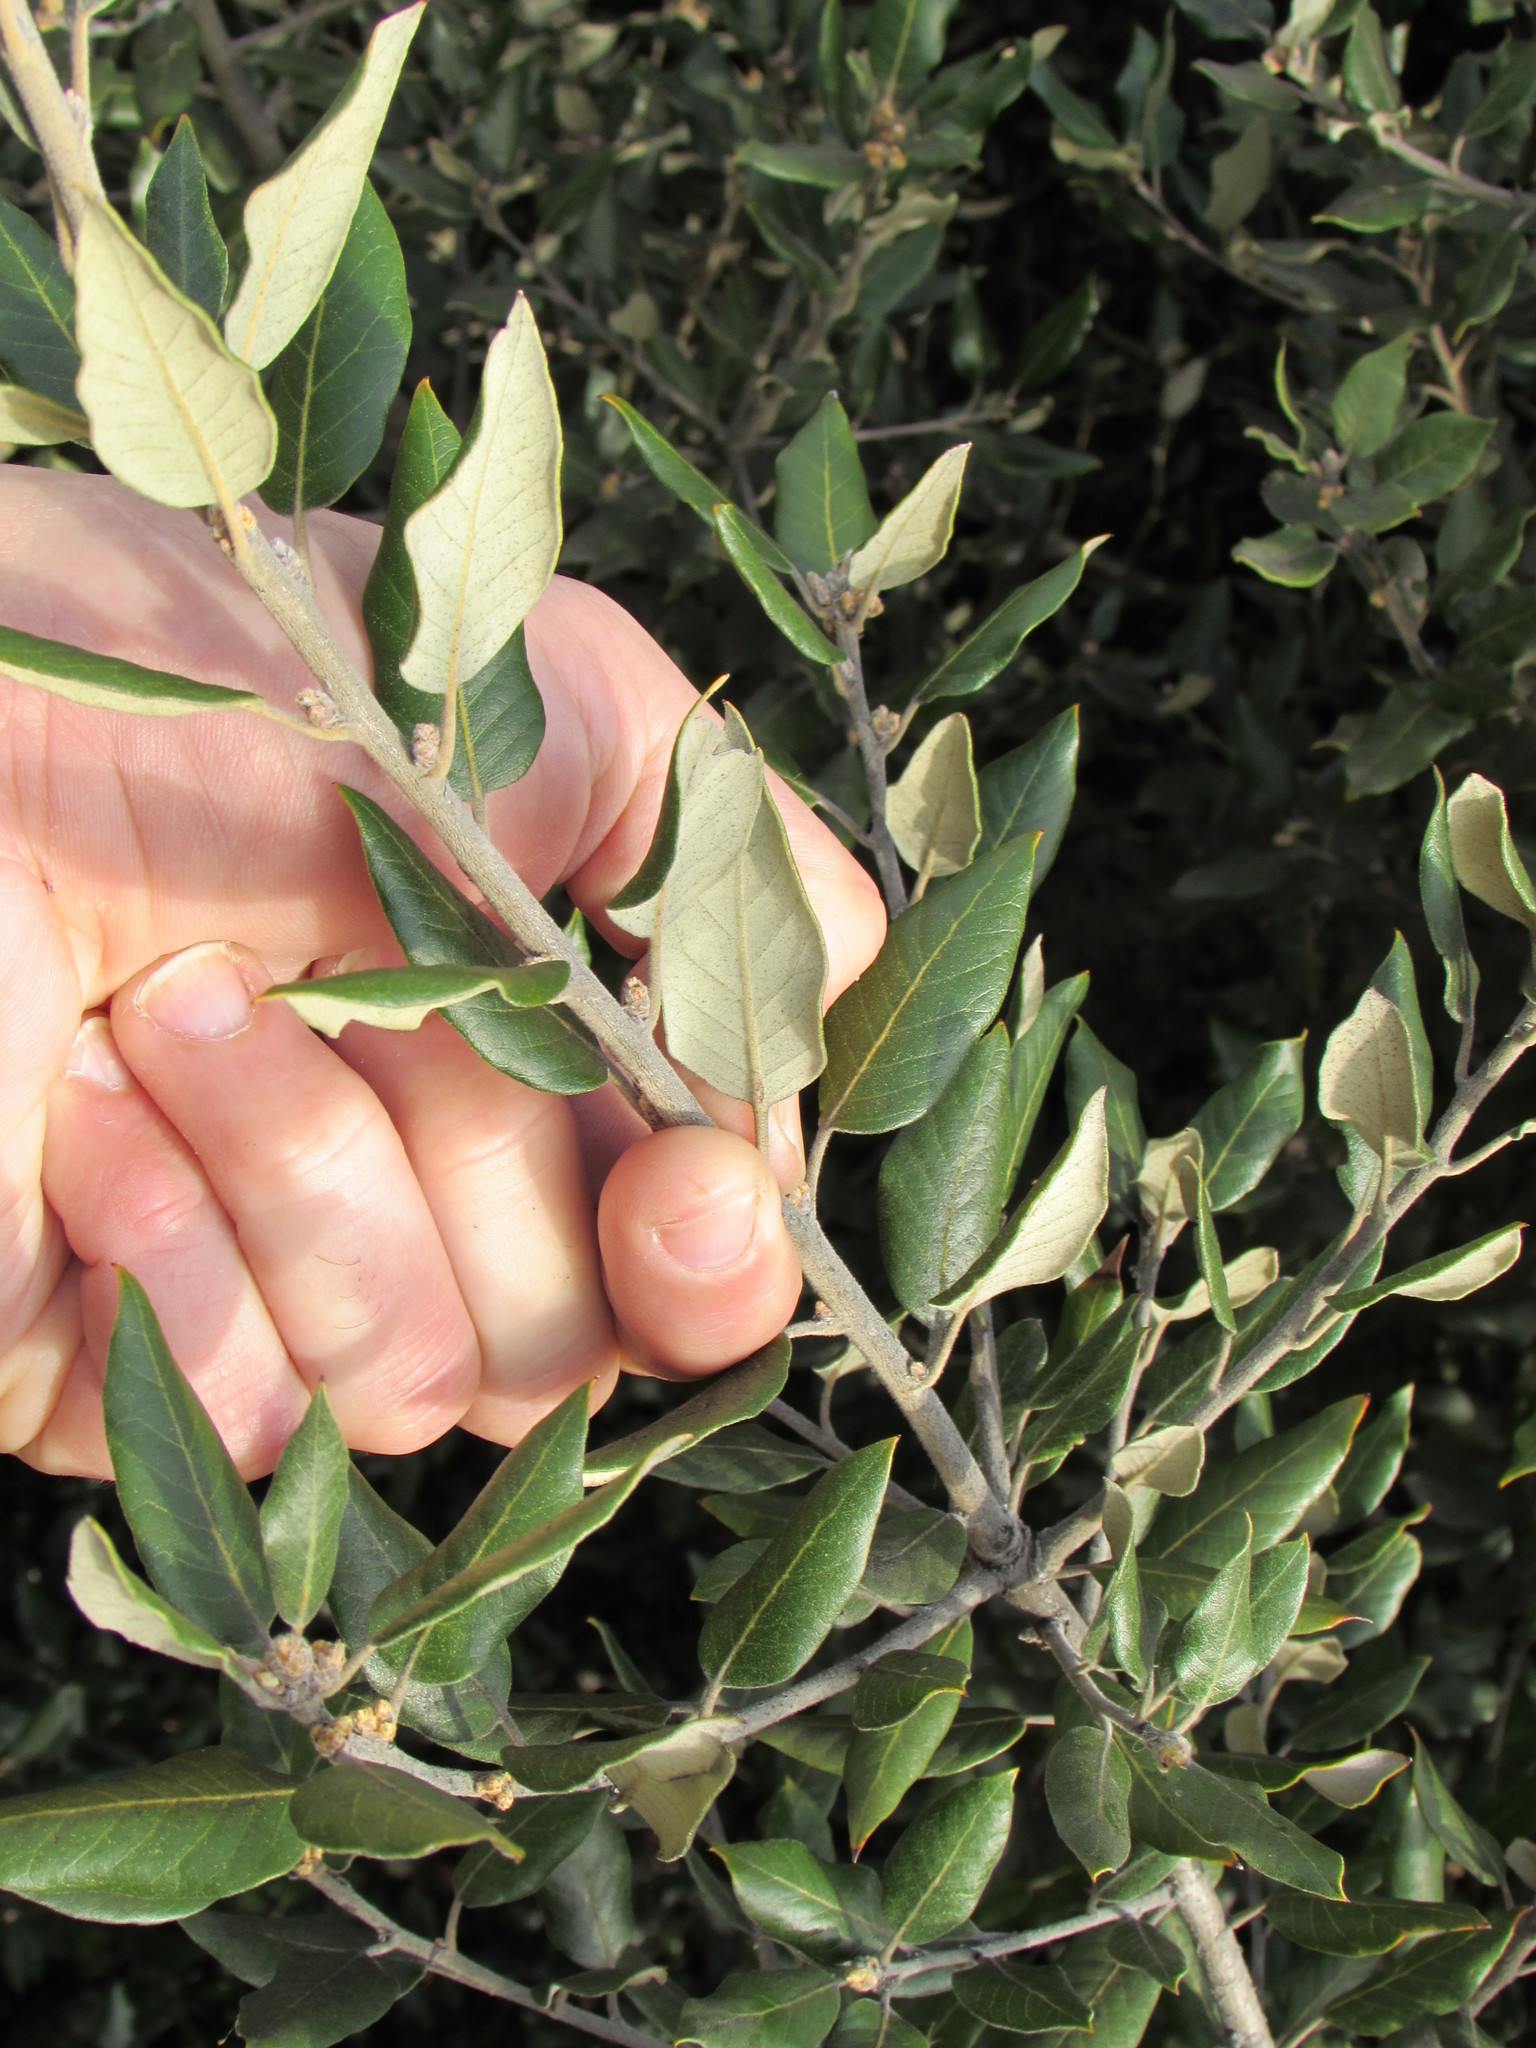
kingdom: Plantae
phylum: Tracheophyta
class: Magnoliopsida
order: Fagales
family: Fagaceae
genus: Quercus
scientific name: Quercus ilex
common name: Evergreen oak
